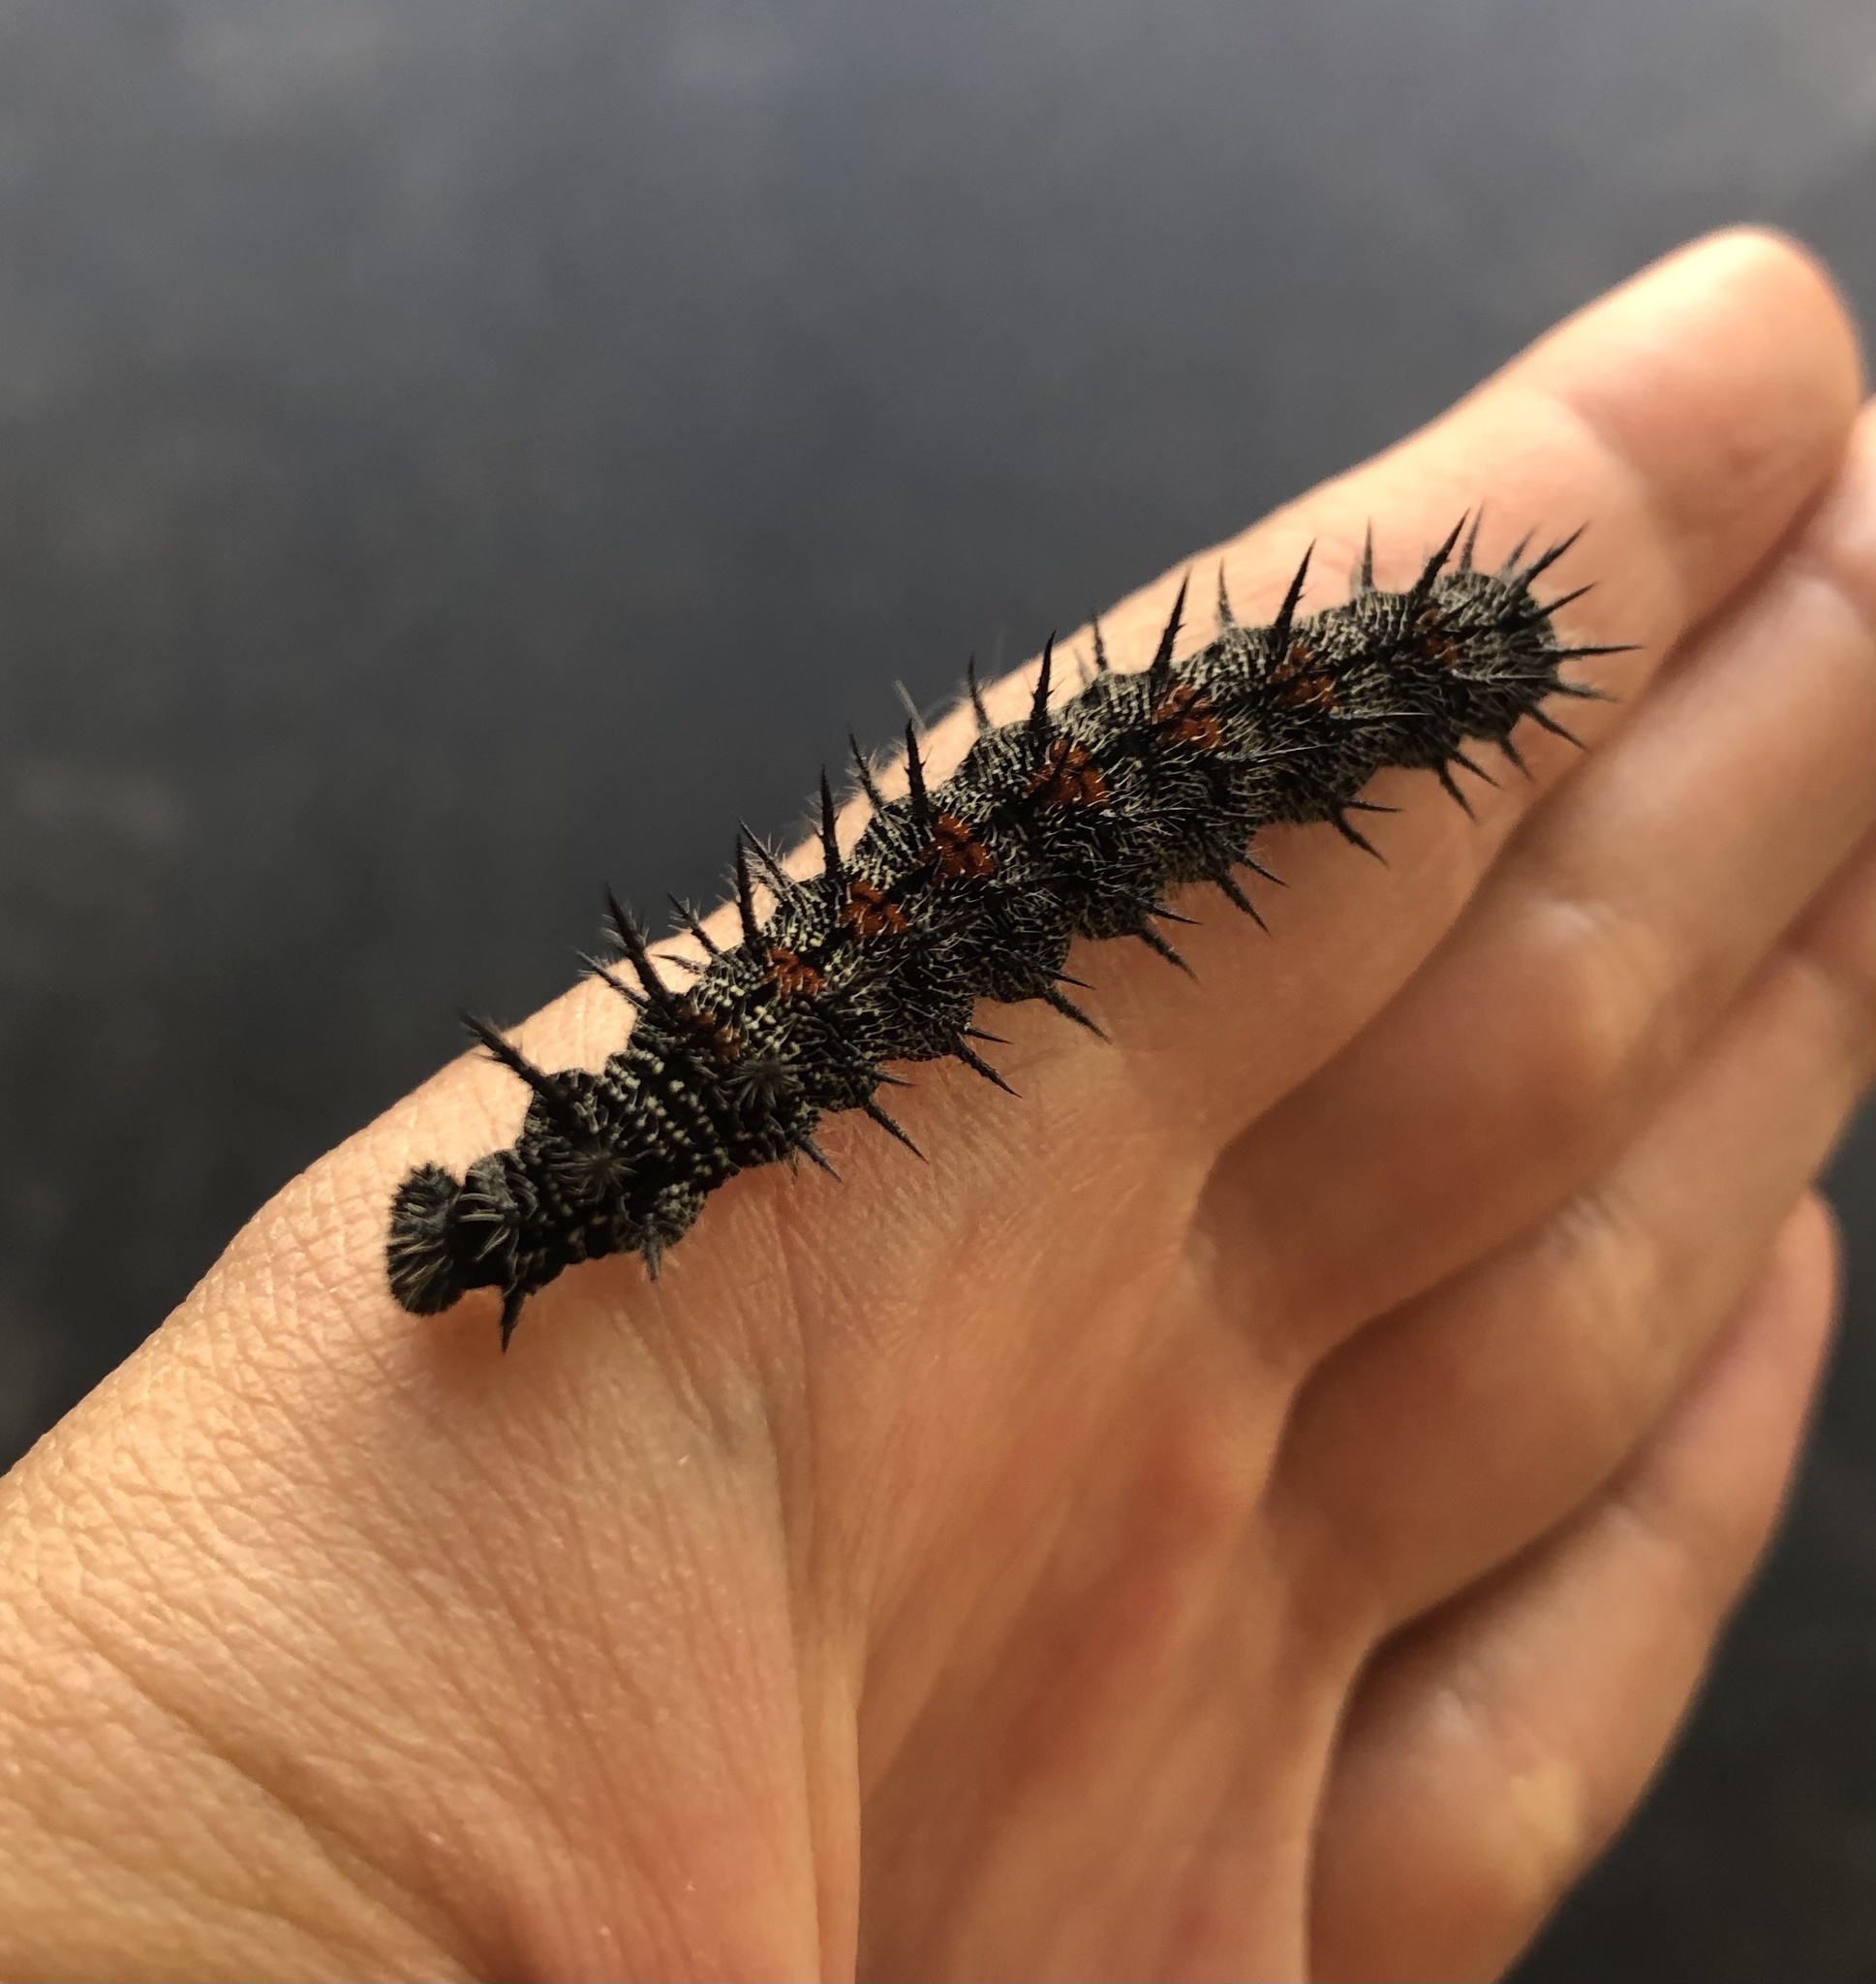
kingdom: Animalia
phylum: Arthropoda
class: Insecta
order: Lepidoptera
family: Nymphalidae
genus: Nymphalis
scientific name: Nymphalis antiopa
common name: Camberwell beauty
